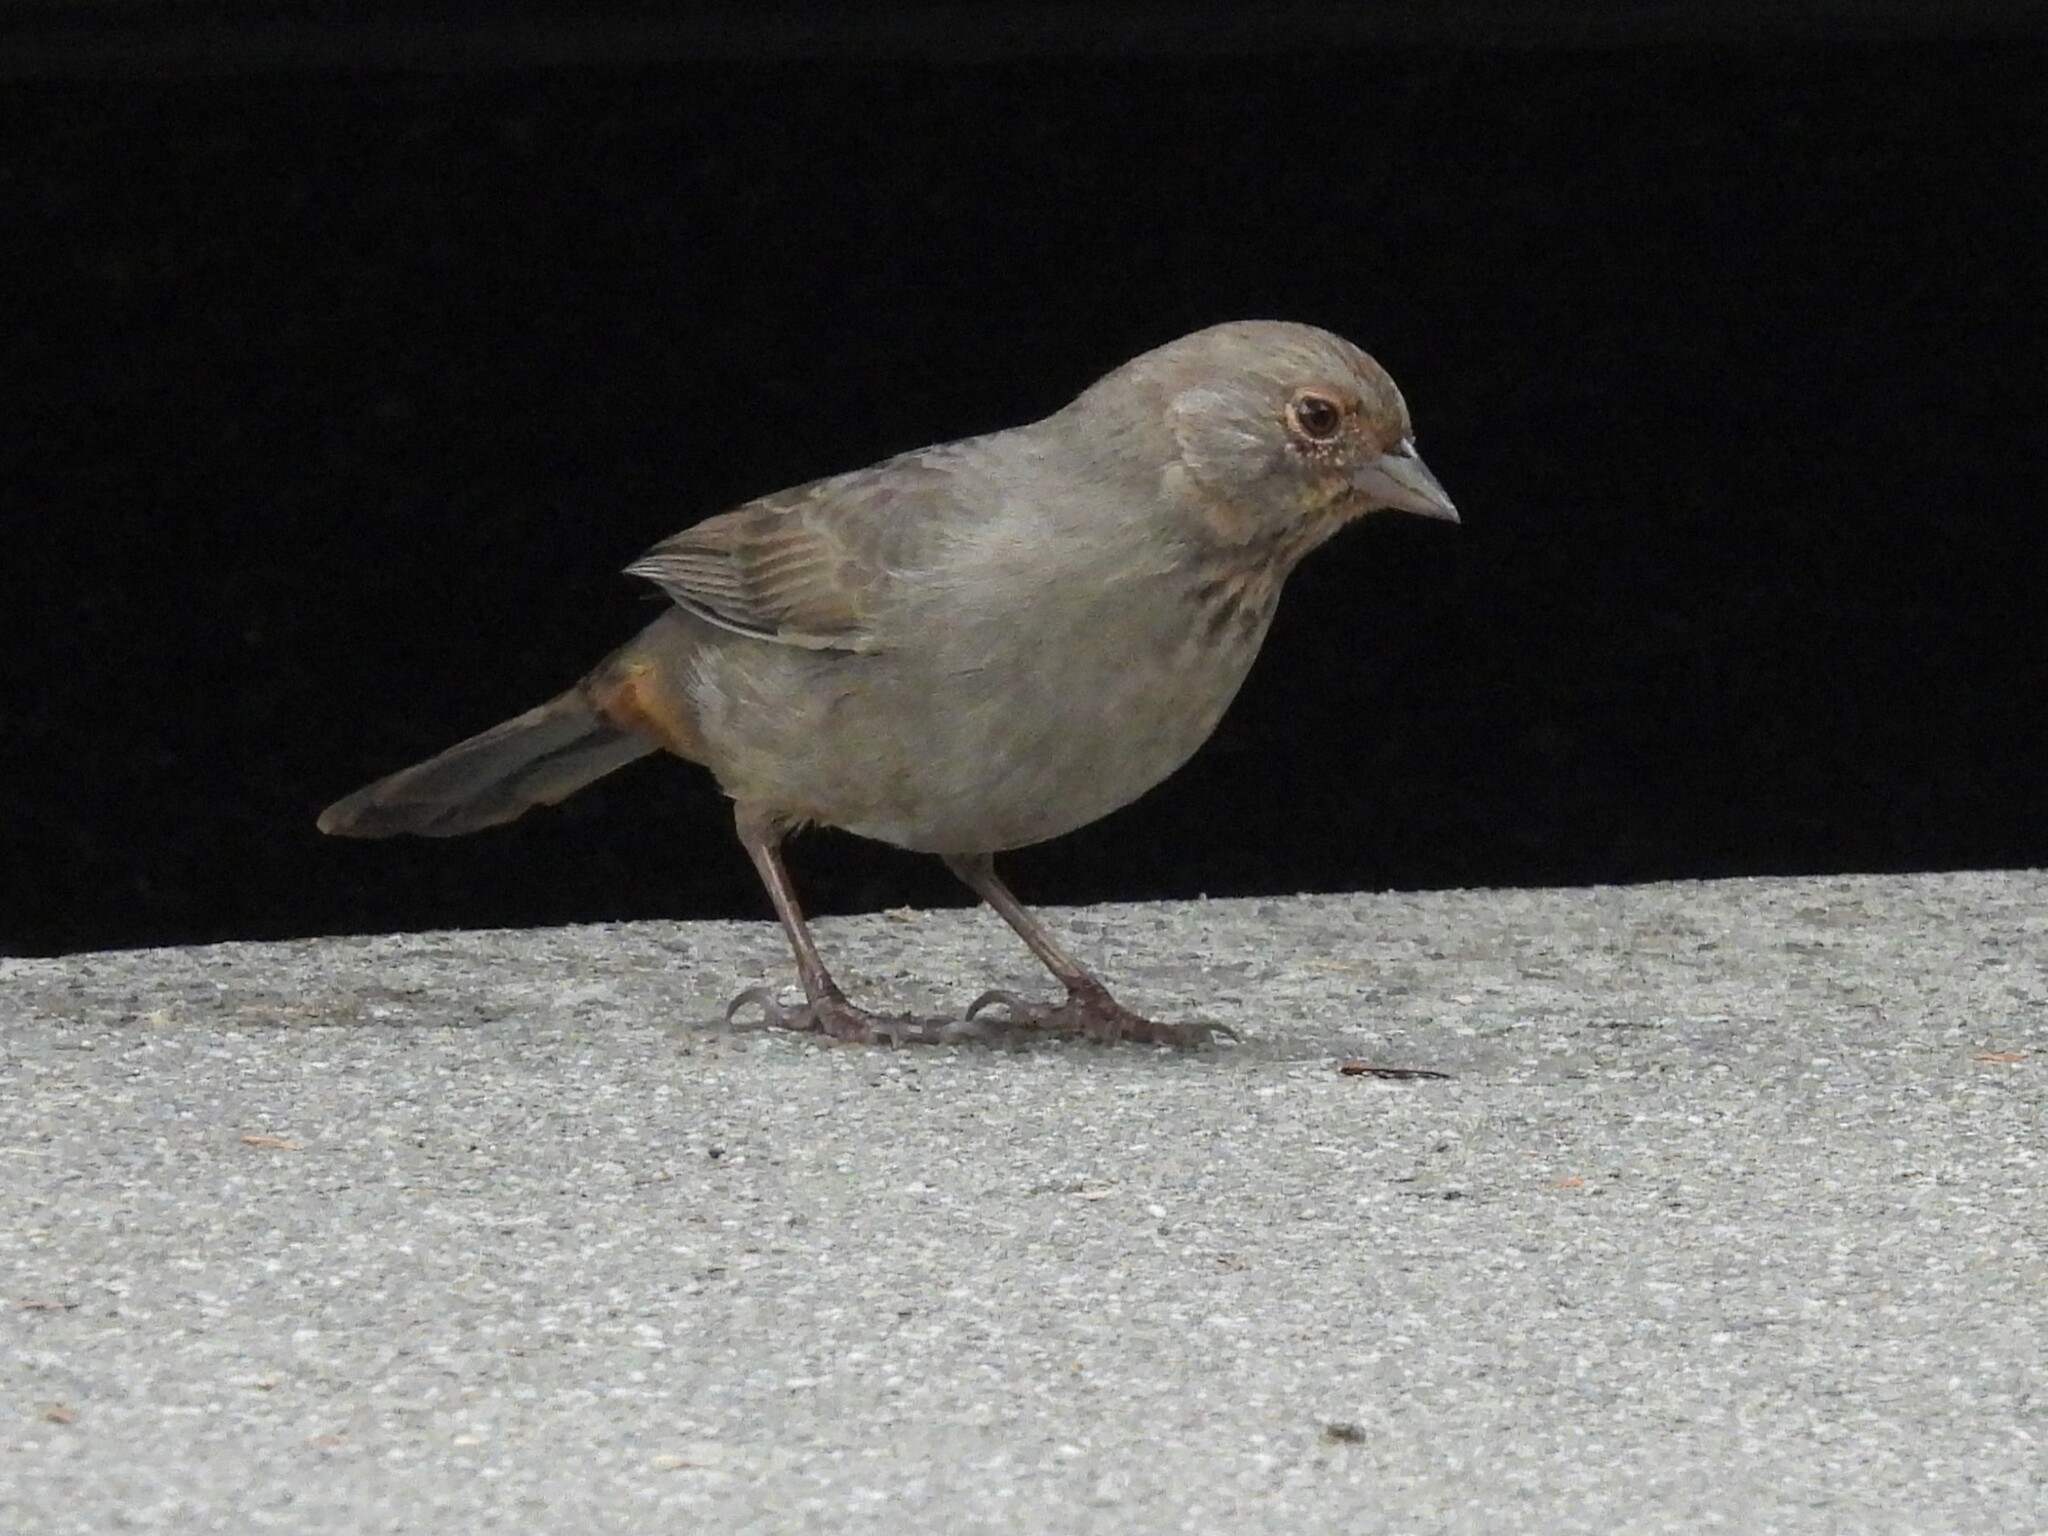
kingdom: Animalia
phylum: Chordata
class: Aves
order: Passeriformes
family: Passerellidae
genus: Melozone
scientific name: Melozone crissalis
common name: California towhee
